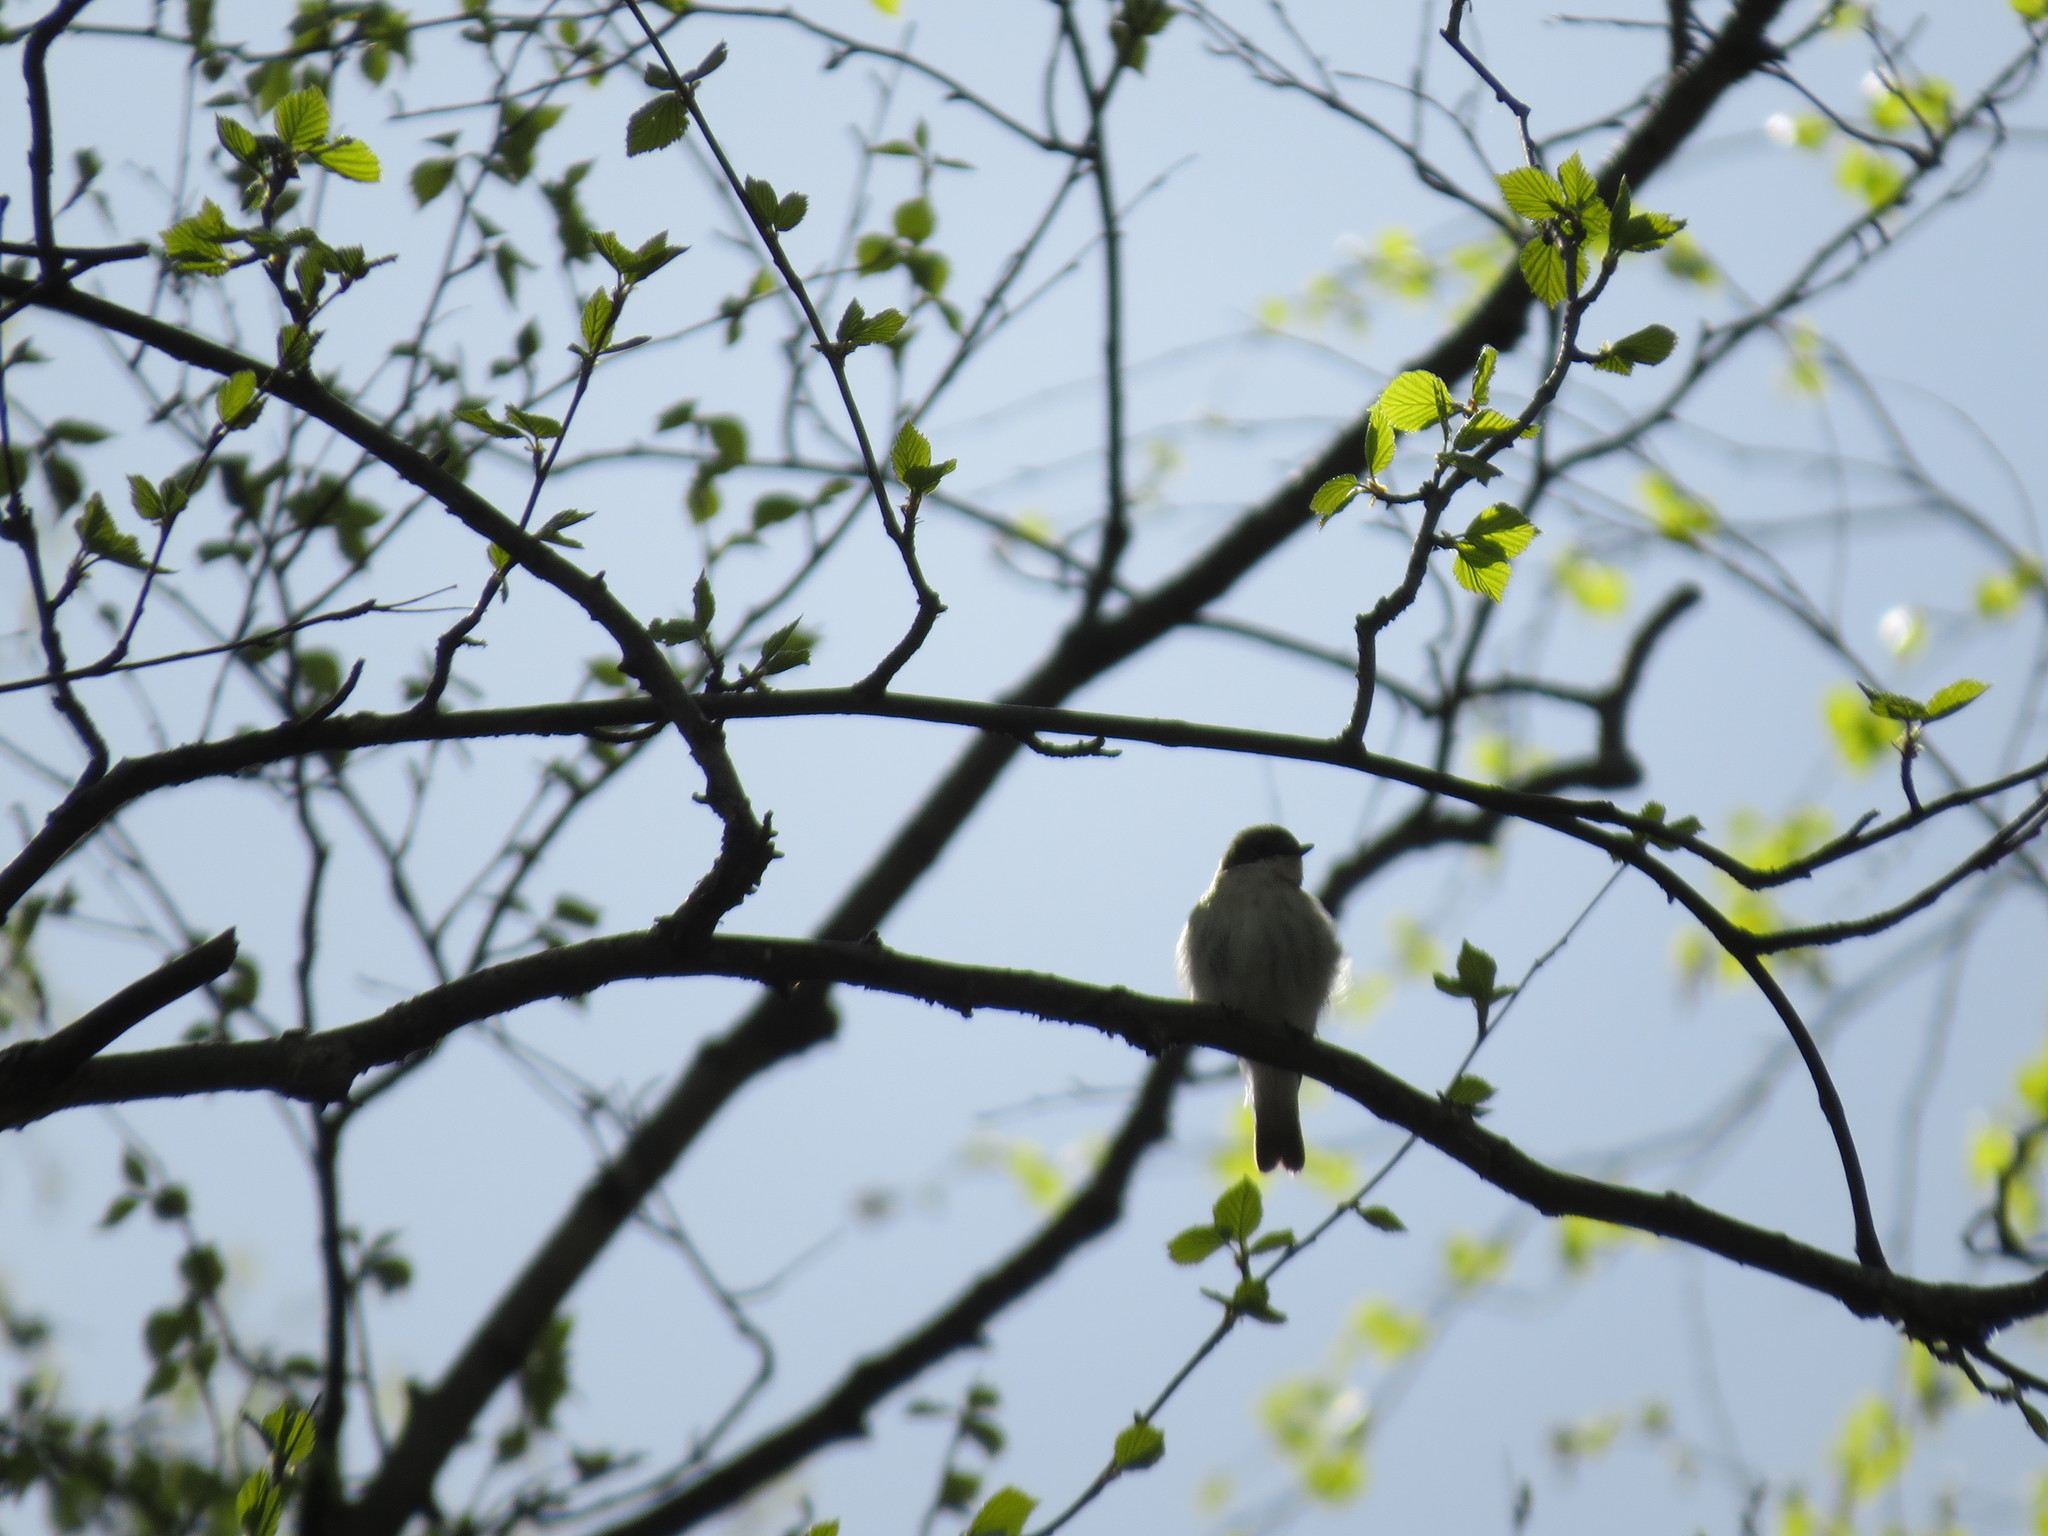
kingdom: Animalia
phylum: Chordata
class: Aves
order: Passeriformes
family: Muscicapidae
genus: Ficedula
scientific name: Ficedula hypoleuca
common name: European pied flycatcher
